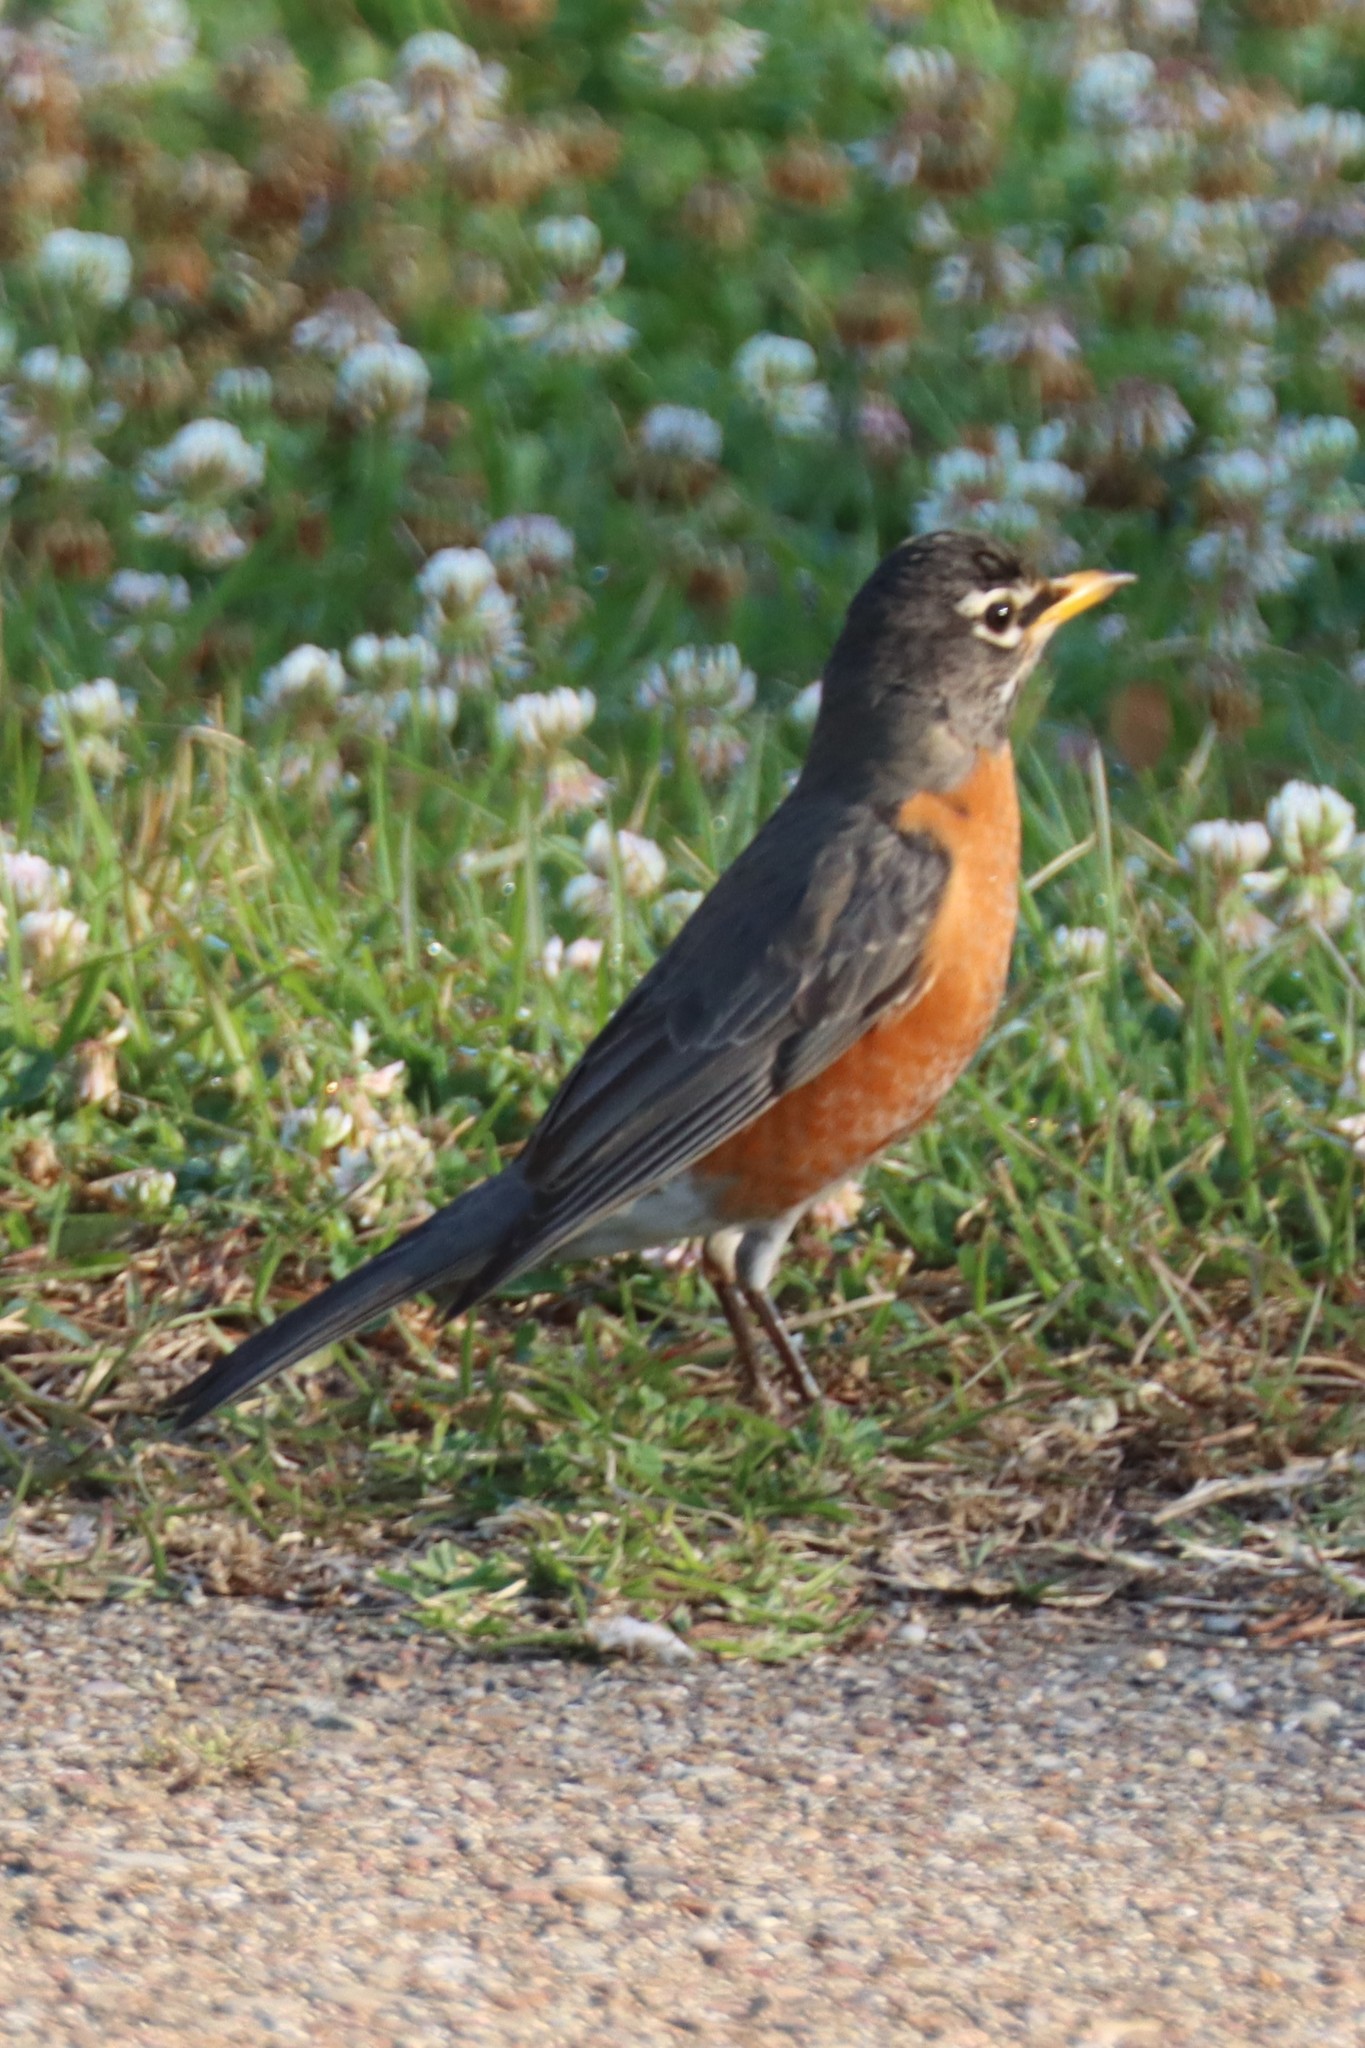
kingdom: Animalia
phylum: Chordata
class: Aves
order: Passeriformes
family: Turdidae
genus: Turdus
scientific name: Turdus migratorius
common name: American robin
